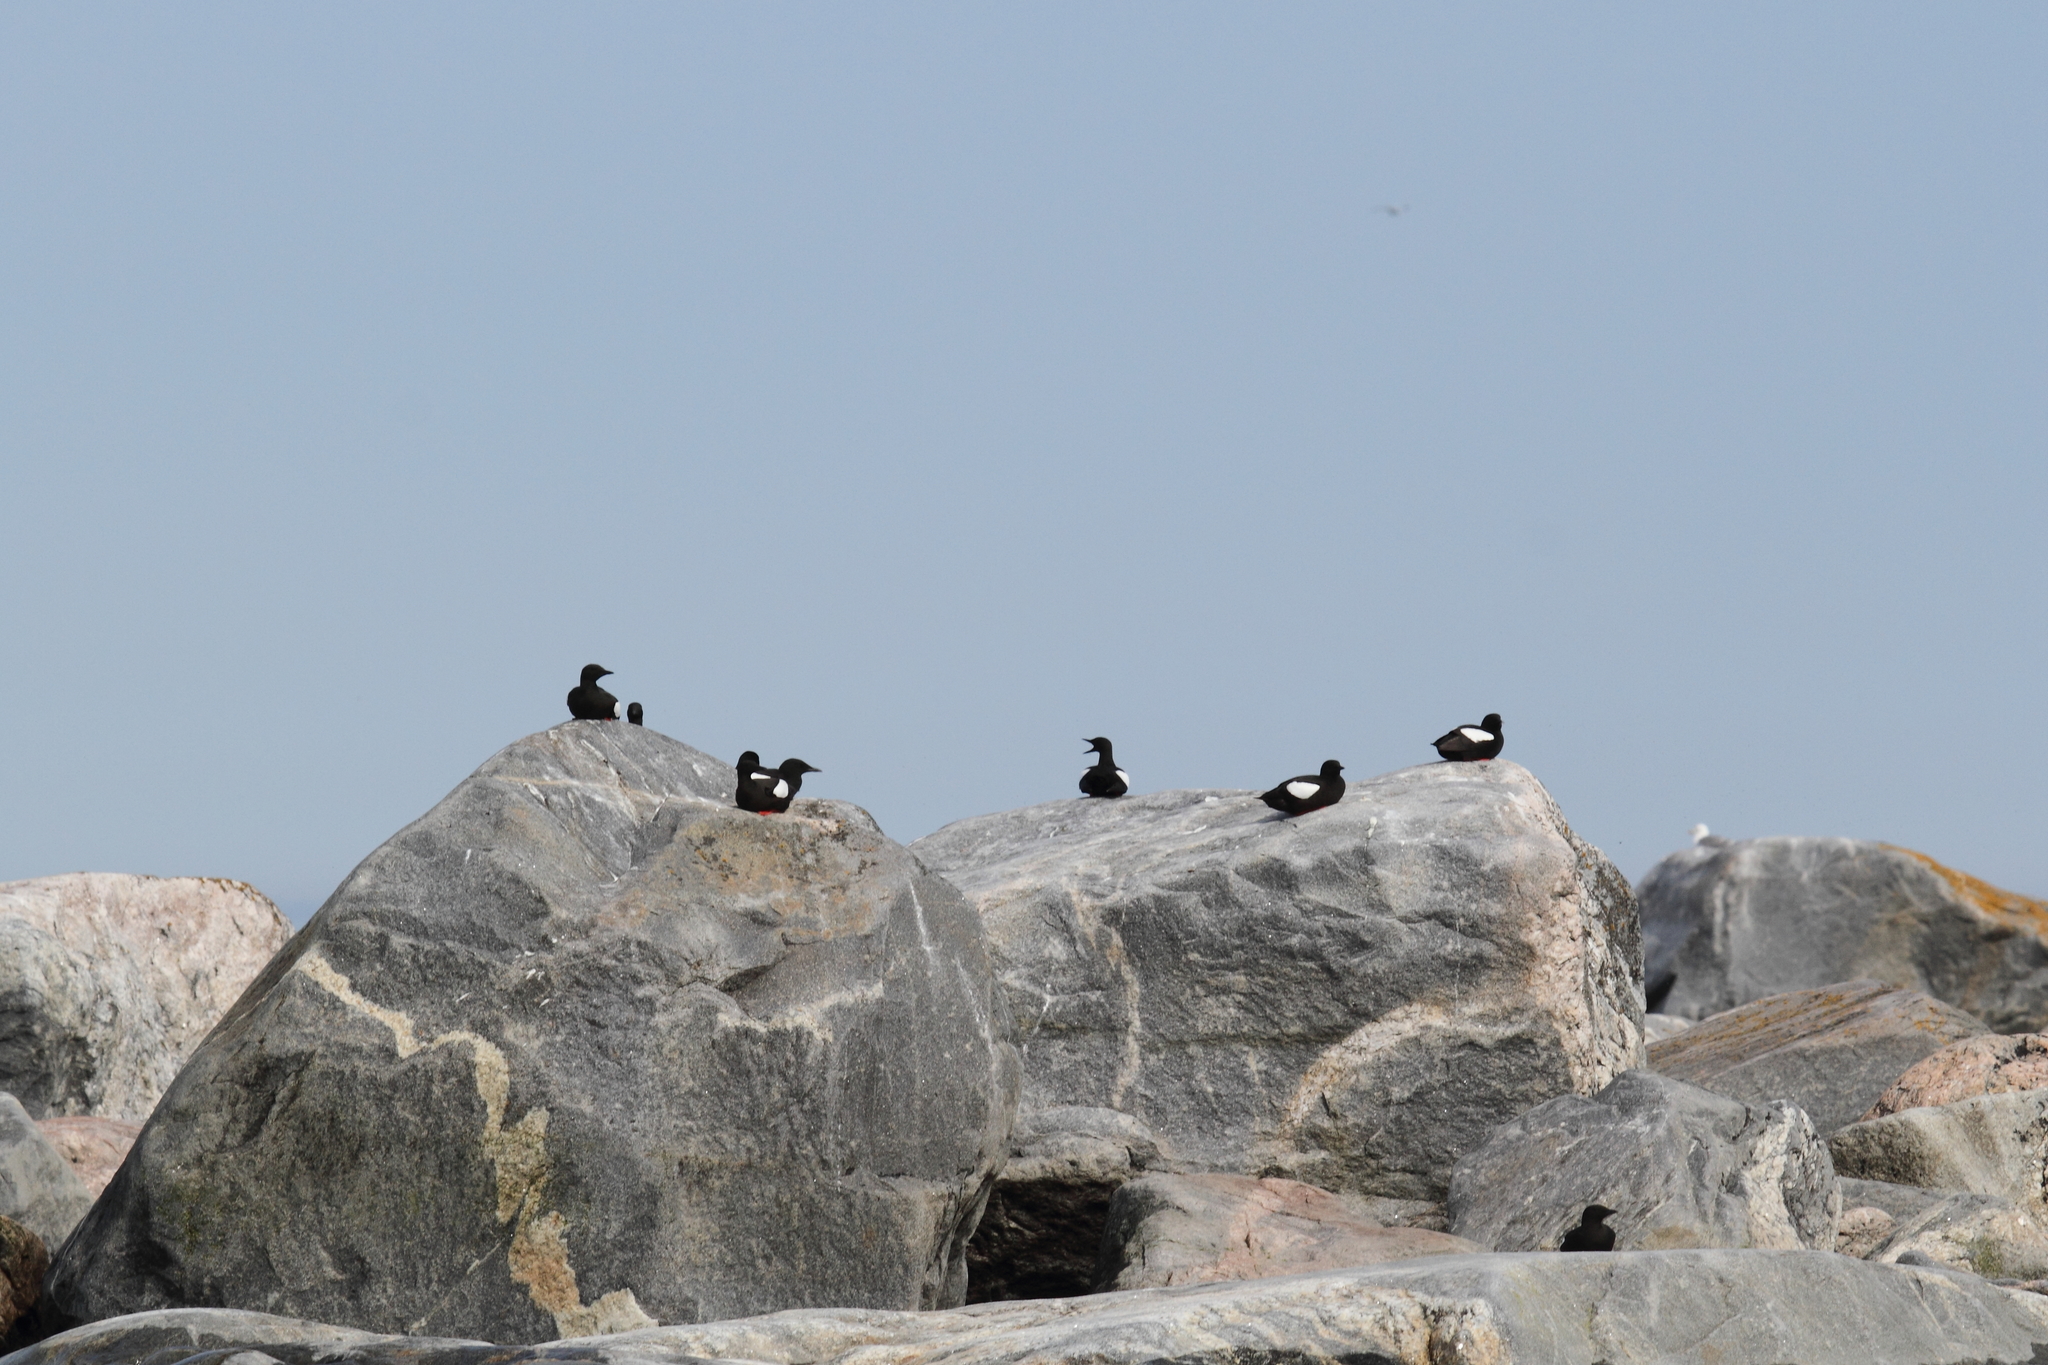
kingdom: Animalia
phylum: Chordata
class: Aves
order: Charadriiformes
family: Alcidae
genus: Cepphus
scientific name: Cepphus grylle
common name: Black guillemot
